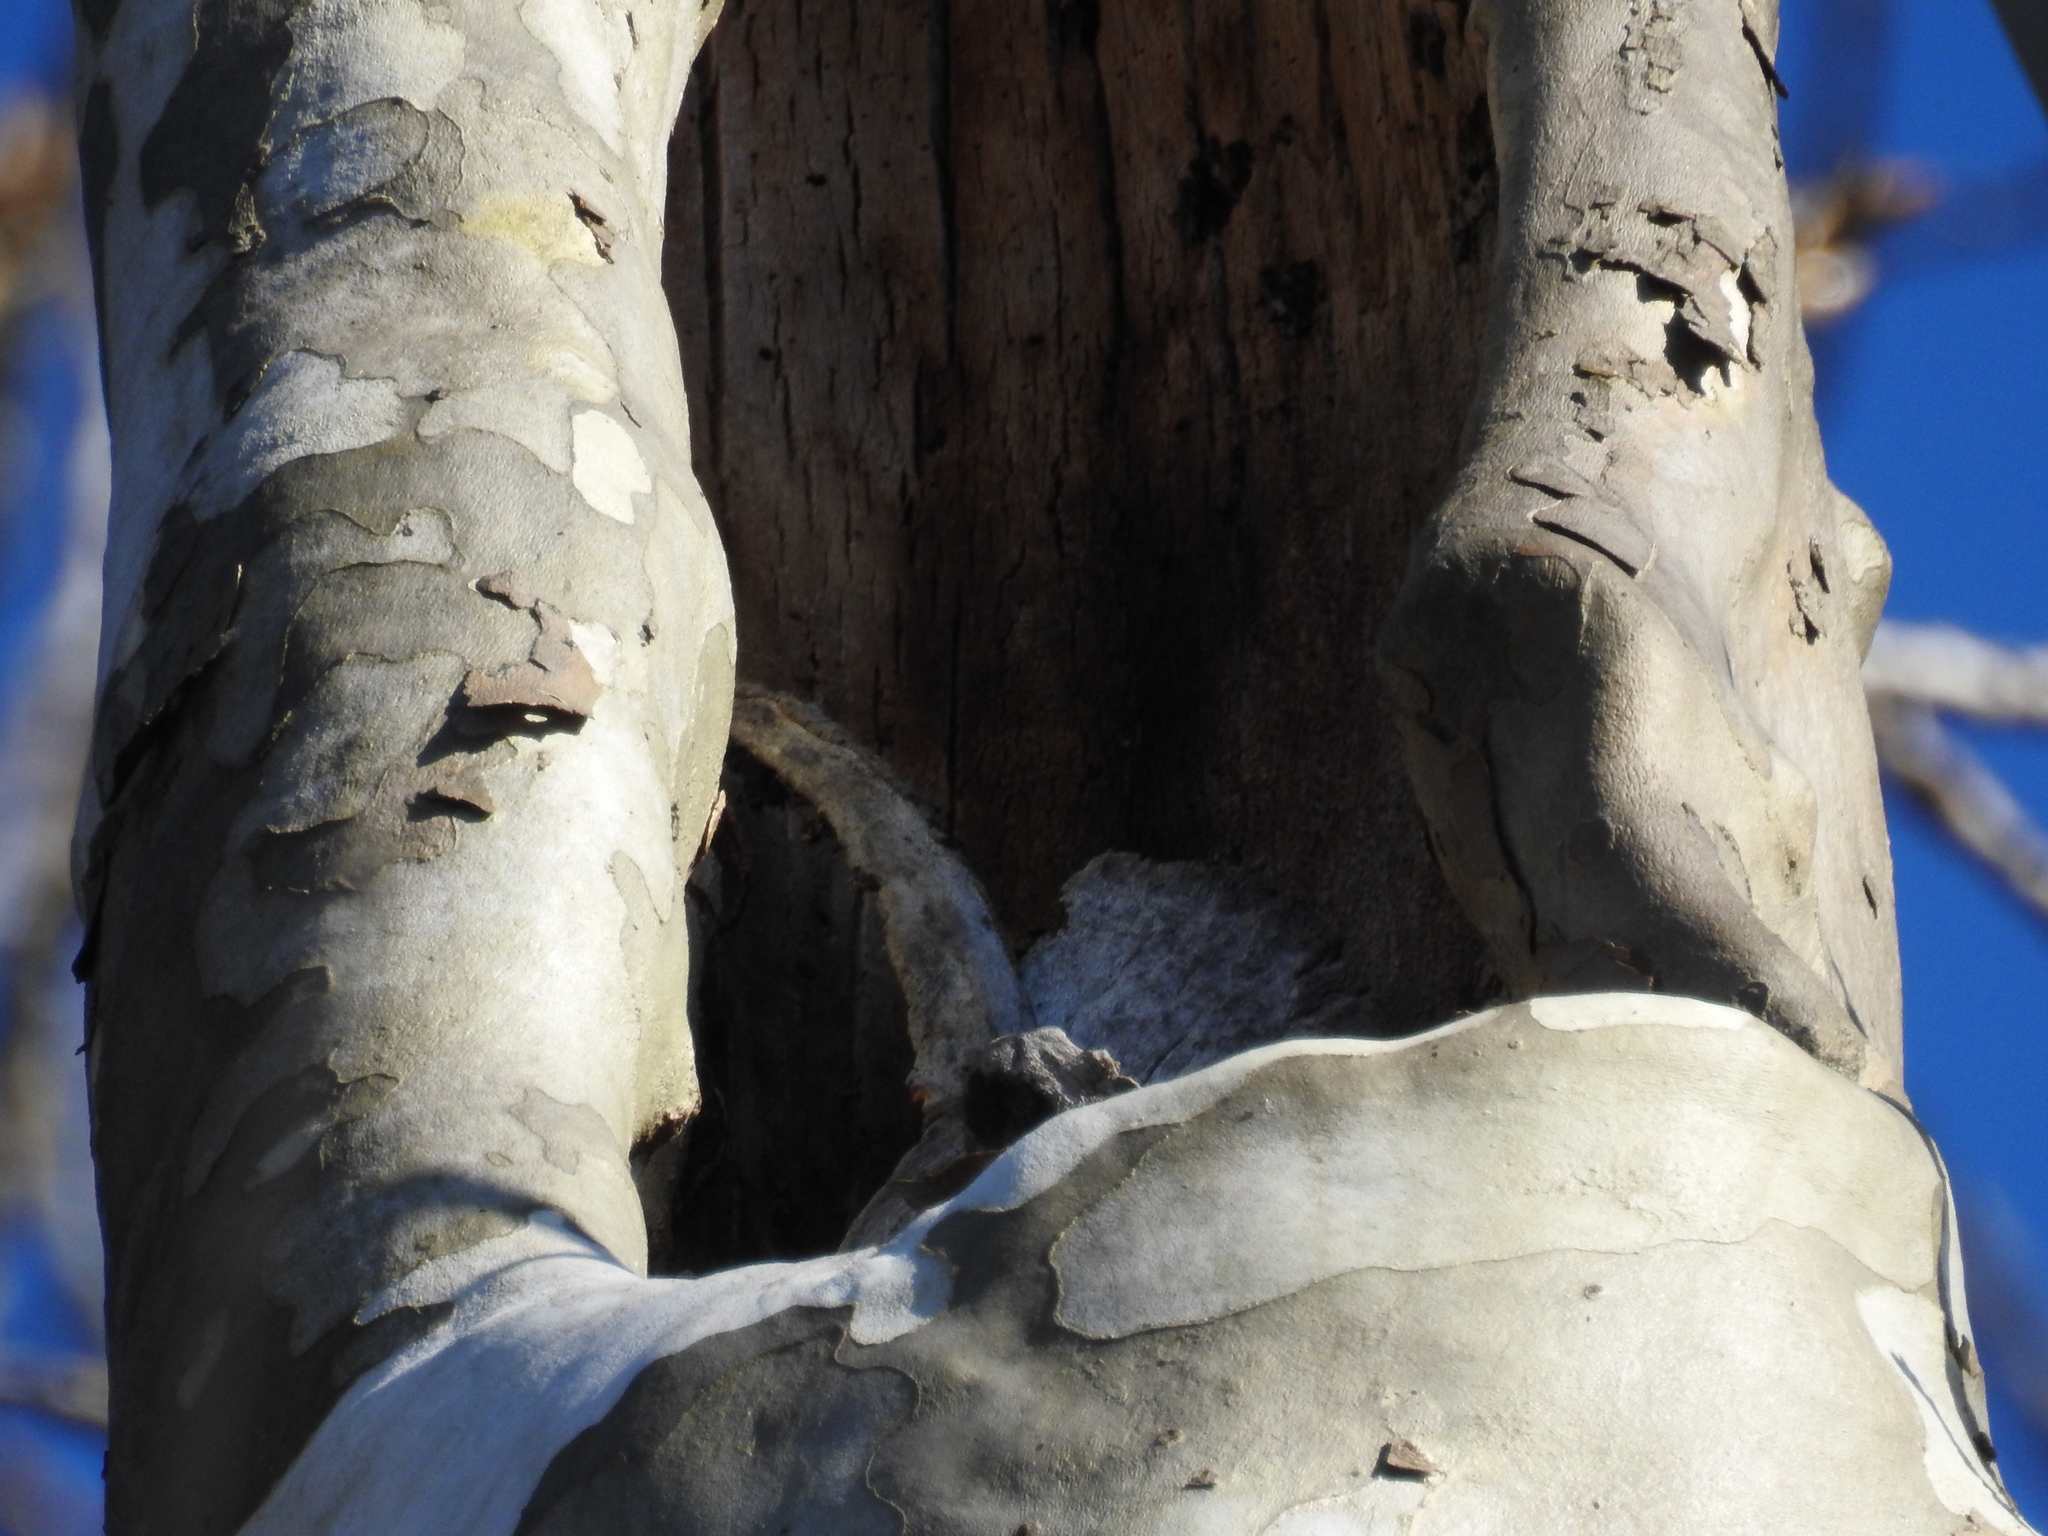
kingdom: Plantae
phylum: Tracheophyta
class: Magnoliopsida
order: Proteales
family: Platanaceae
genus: Platanus
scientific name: Platanus occidentalis
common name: American sycamore
